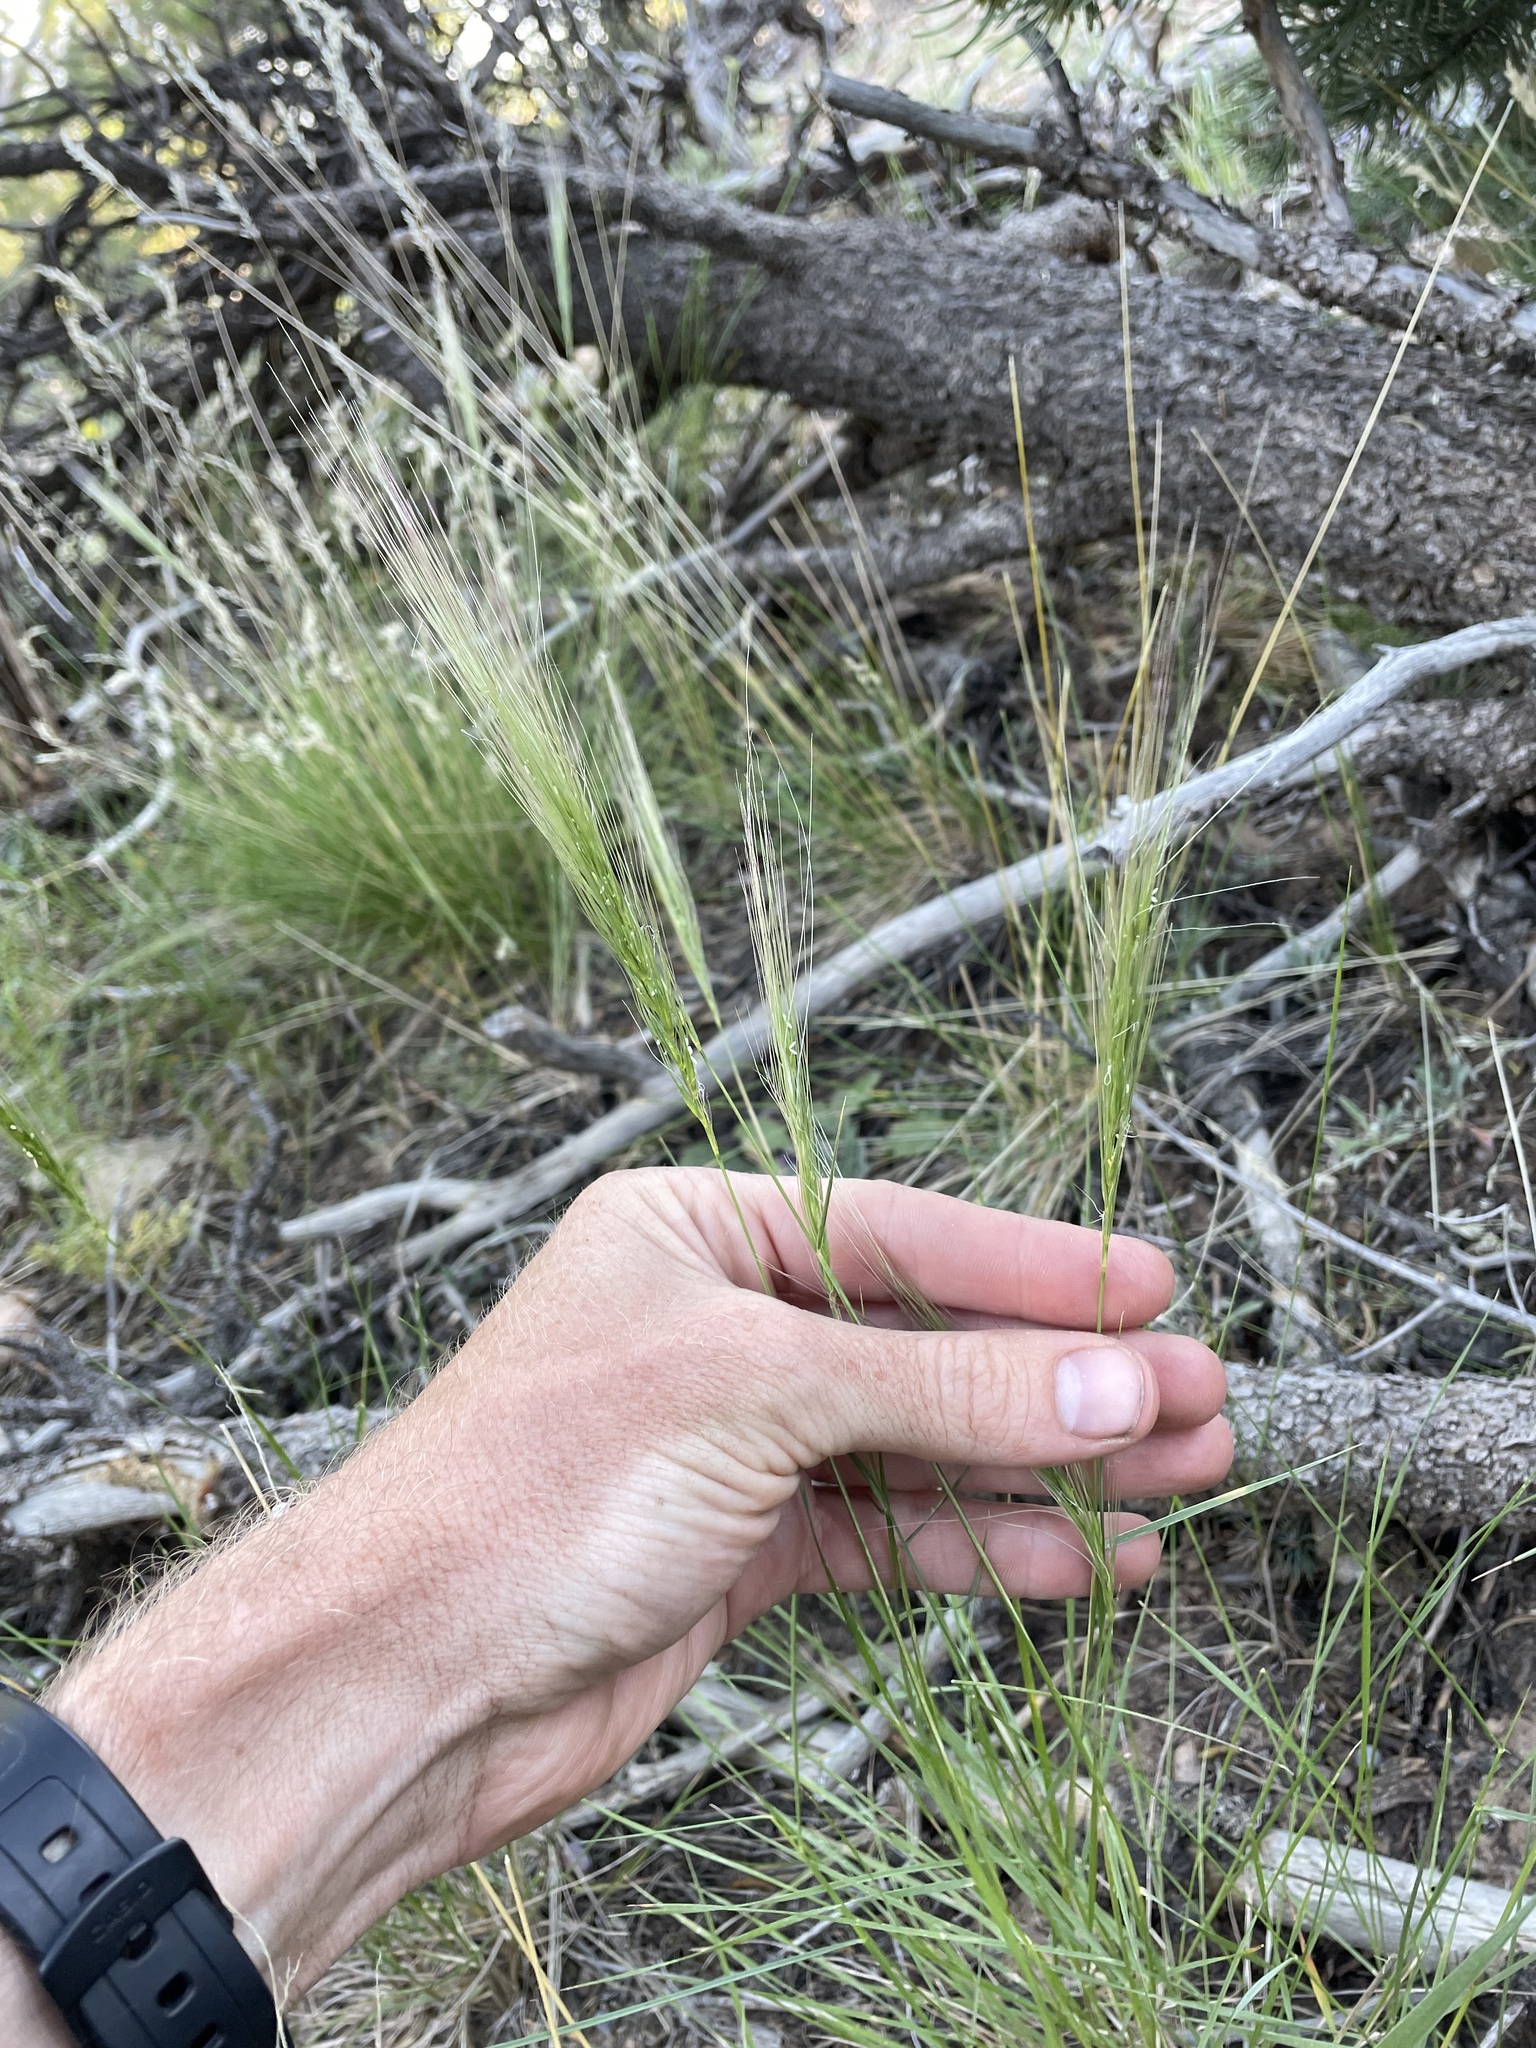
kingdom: Plantae
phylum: Tracheophyta
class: Liliopsida
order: Poales
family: Poaceae
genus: Elymus
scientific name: Elymus longifolius
